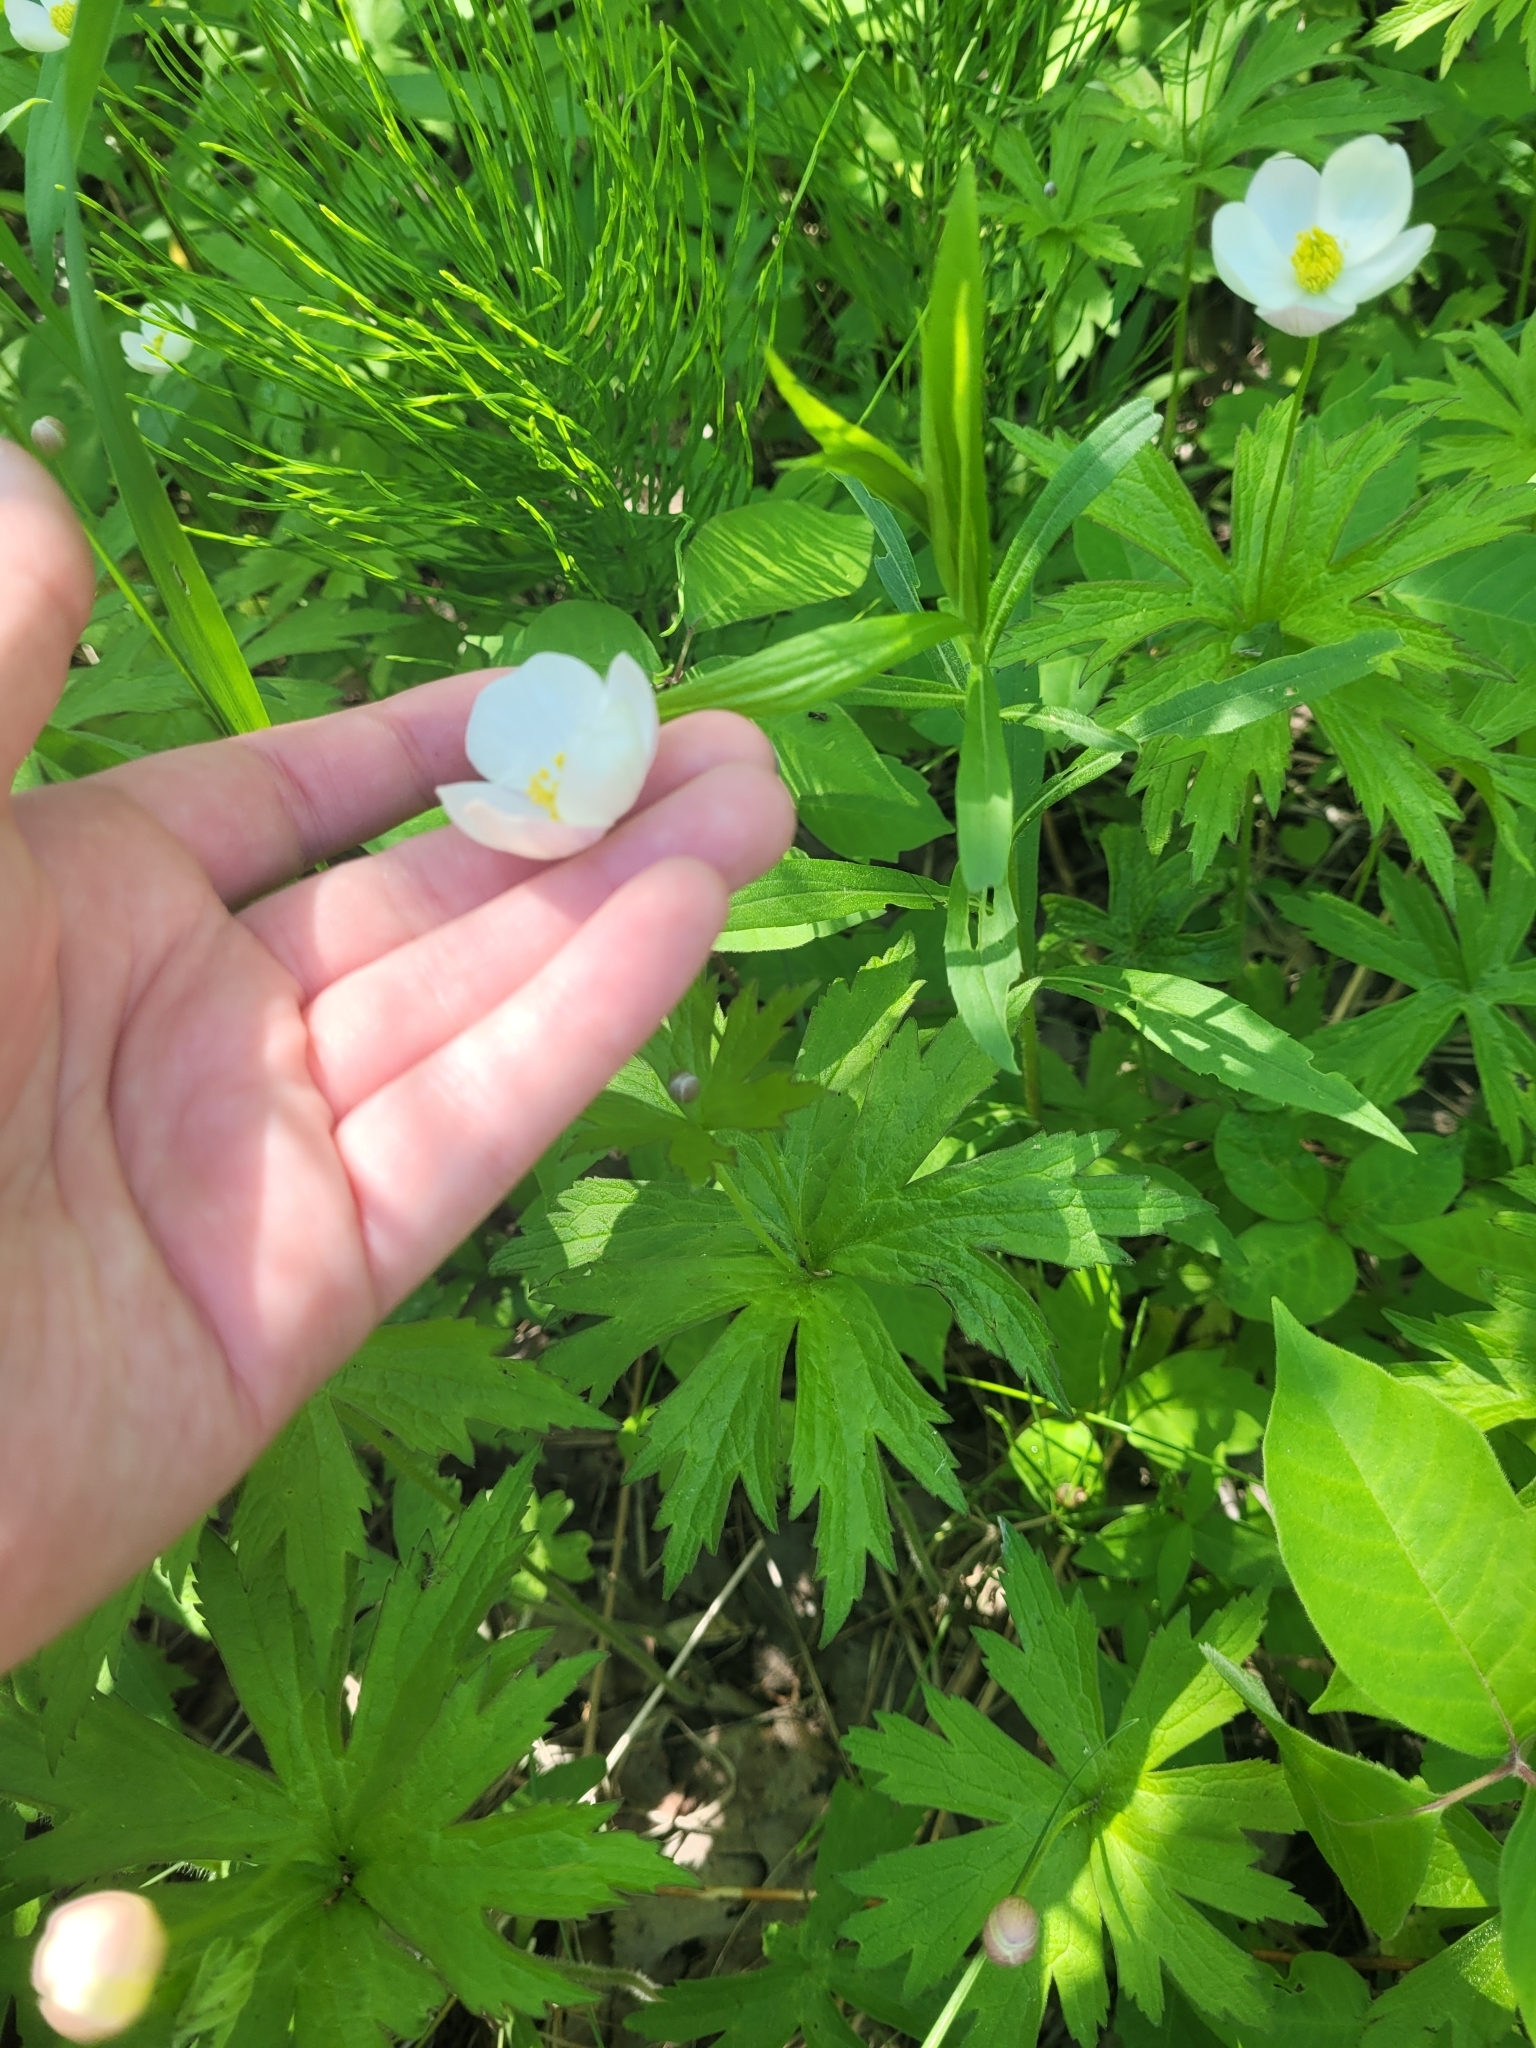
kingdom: Plantae
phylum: Tracheophyta
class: Magnoliopsida
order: Ranunculales
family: Ranunculaceae
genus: Anemonastrum
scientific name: Anemonastrum canadense
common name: Canada anemone
